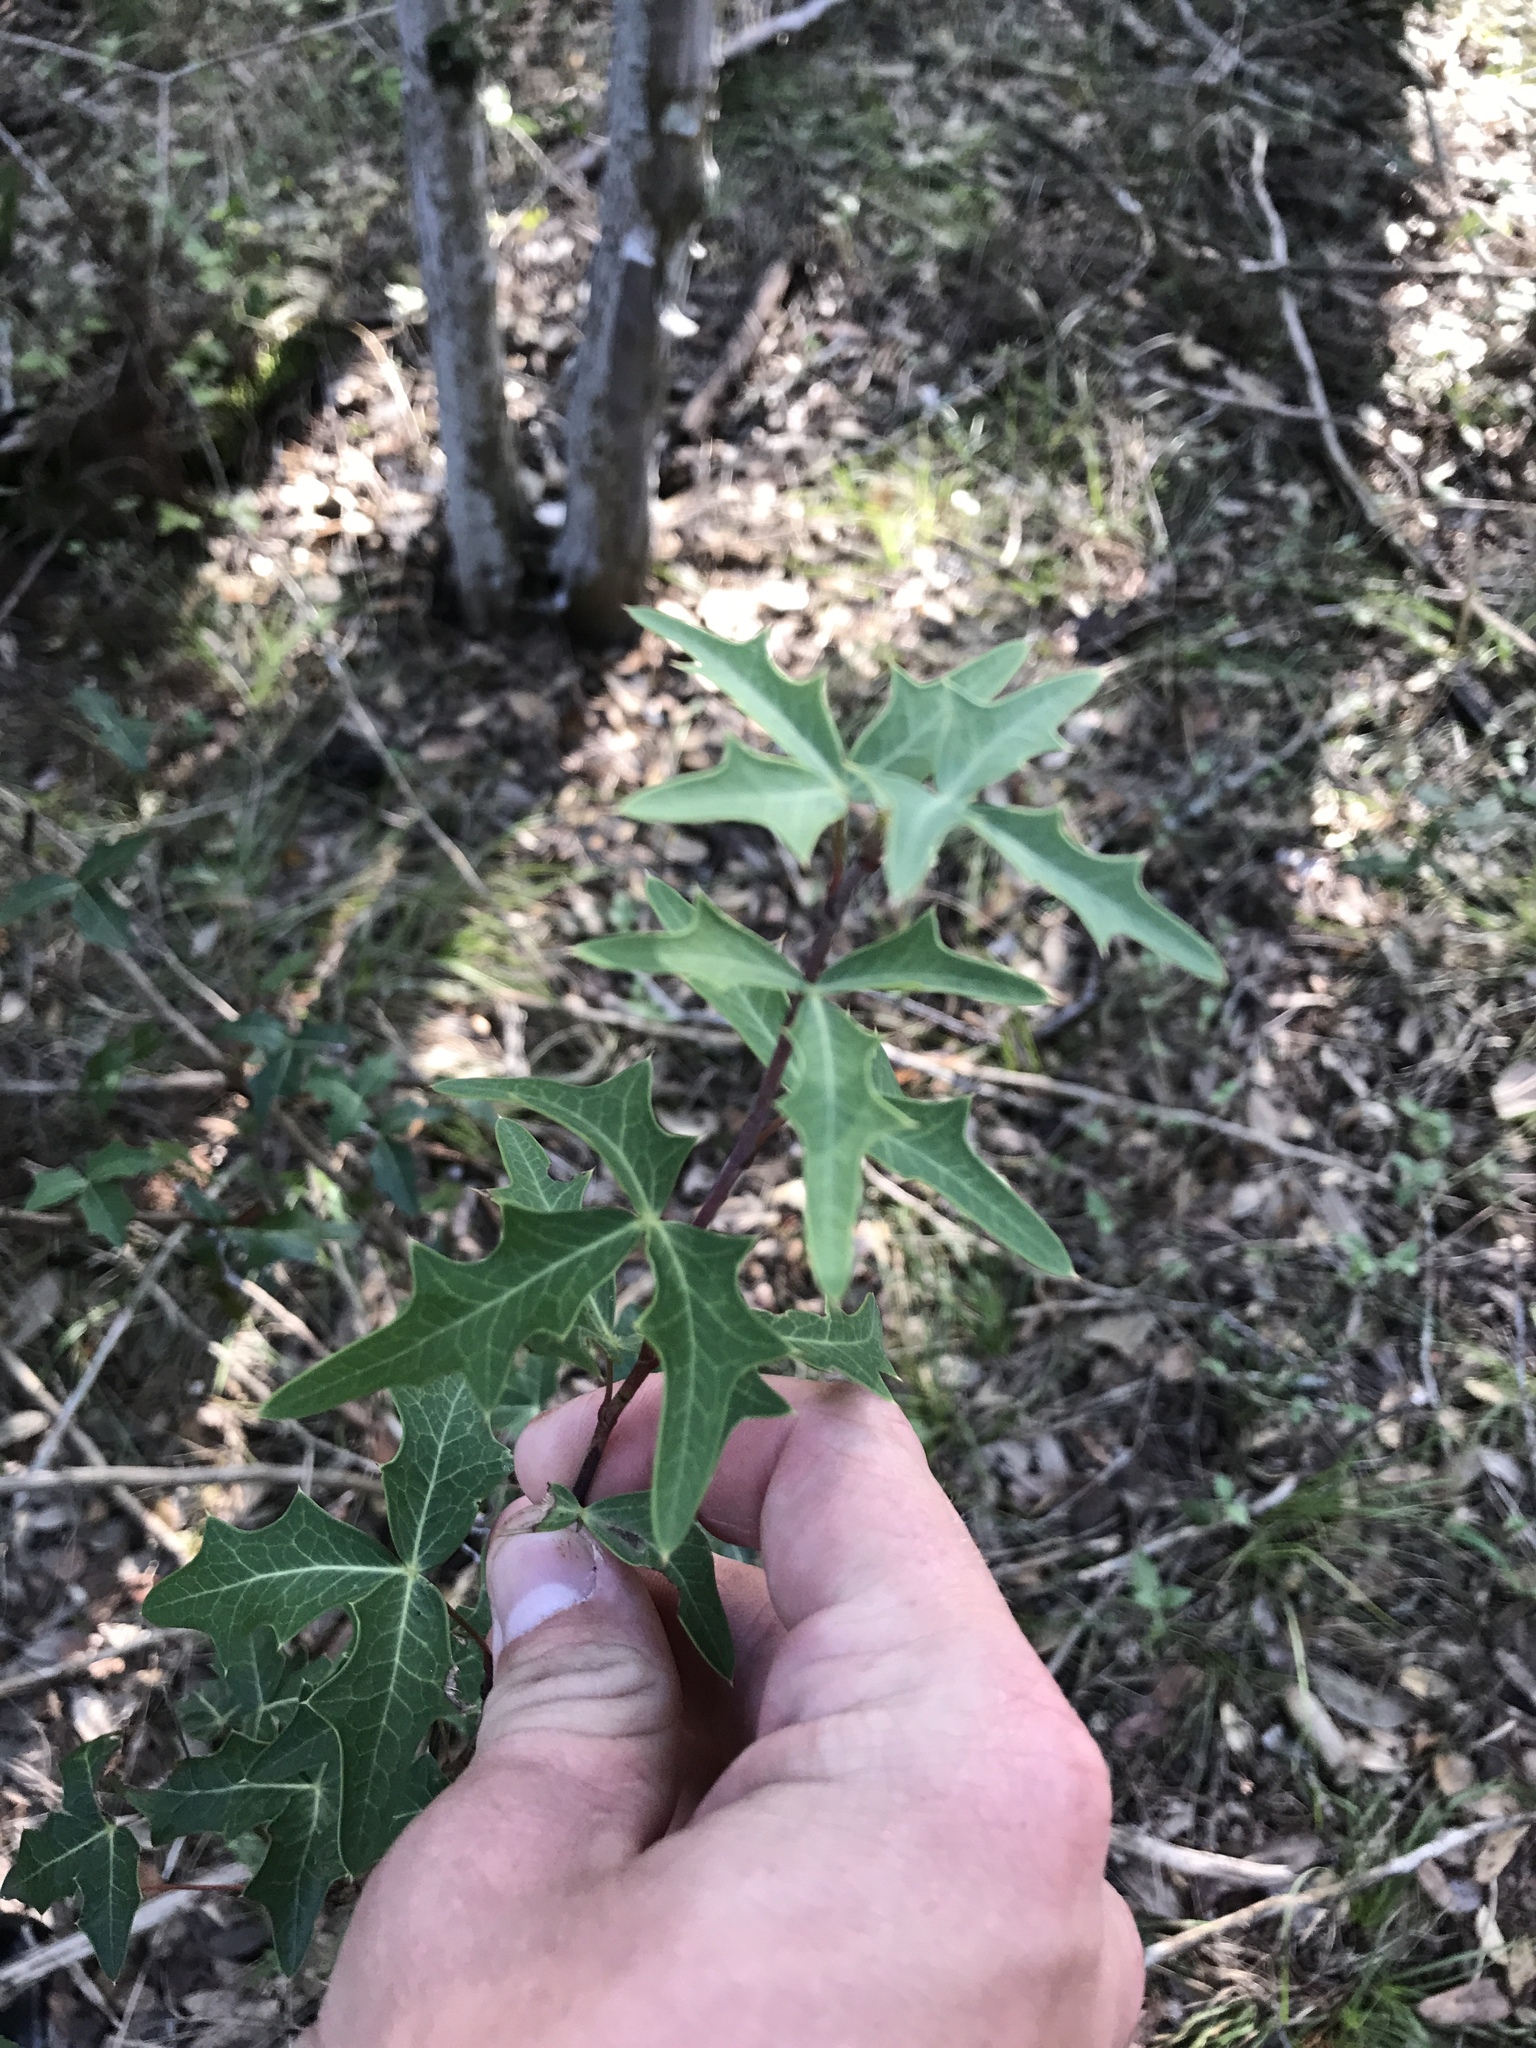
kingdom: Plantae
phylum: Tracheophyta
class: Magnoliopsida
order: Ranunculales
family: Berberidaceae
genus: Alloberberis
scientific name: Alloberberis trifoliolata
